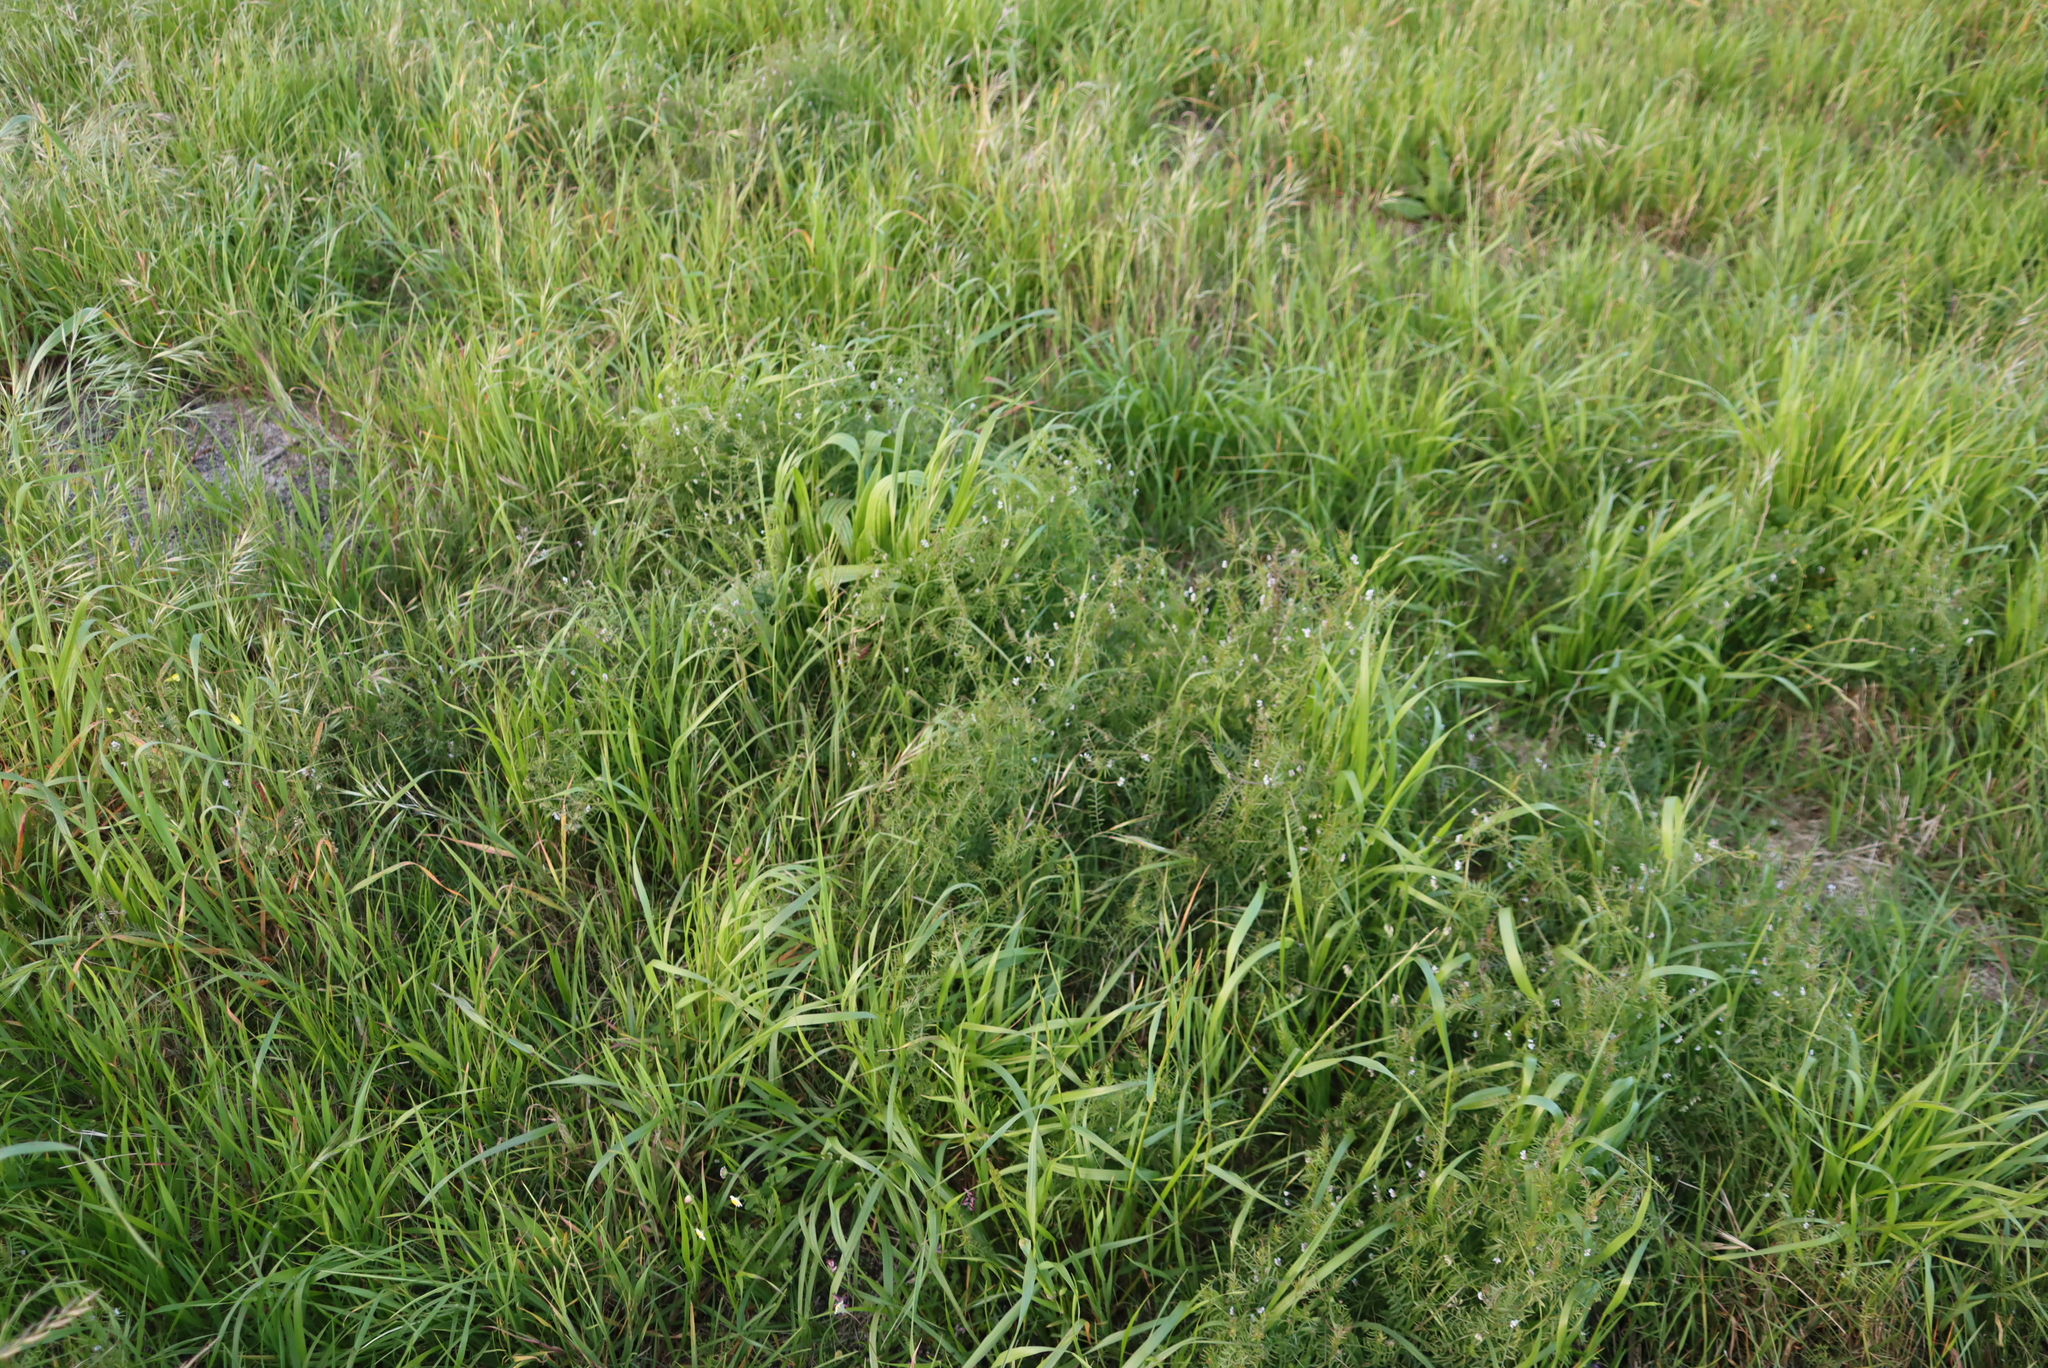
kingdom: Plantae
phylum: Tracheophyta
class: Magnoliopsida
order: Fabales
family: Fabaceae
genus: Vicia
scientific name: Vicia hirsuta
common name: Tiny vetch
